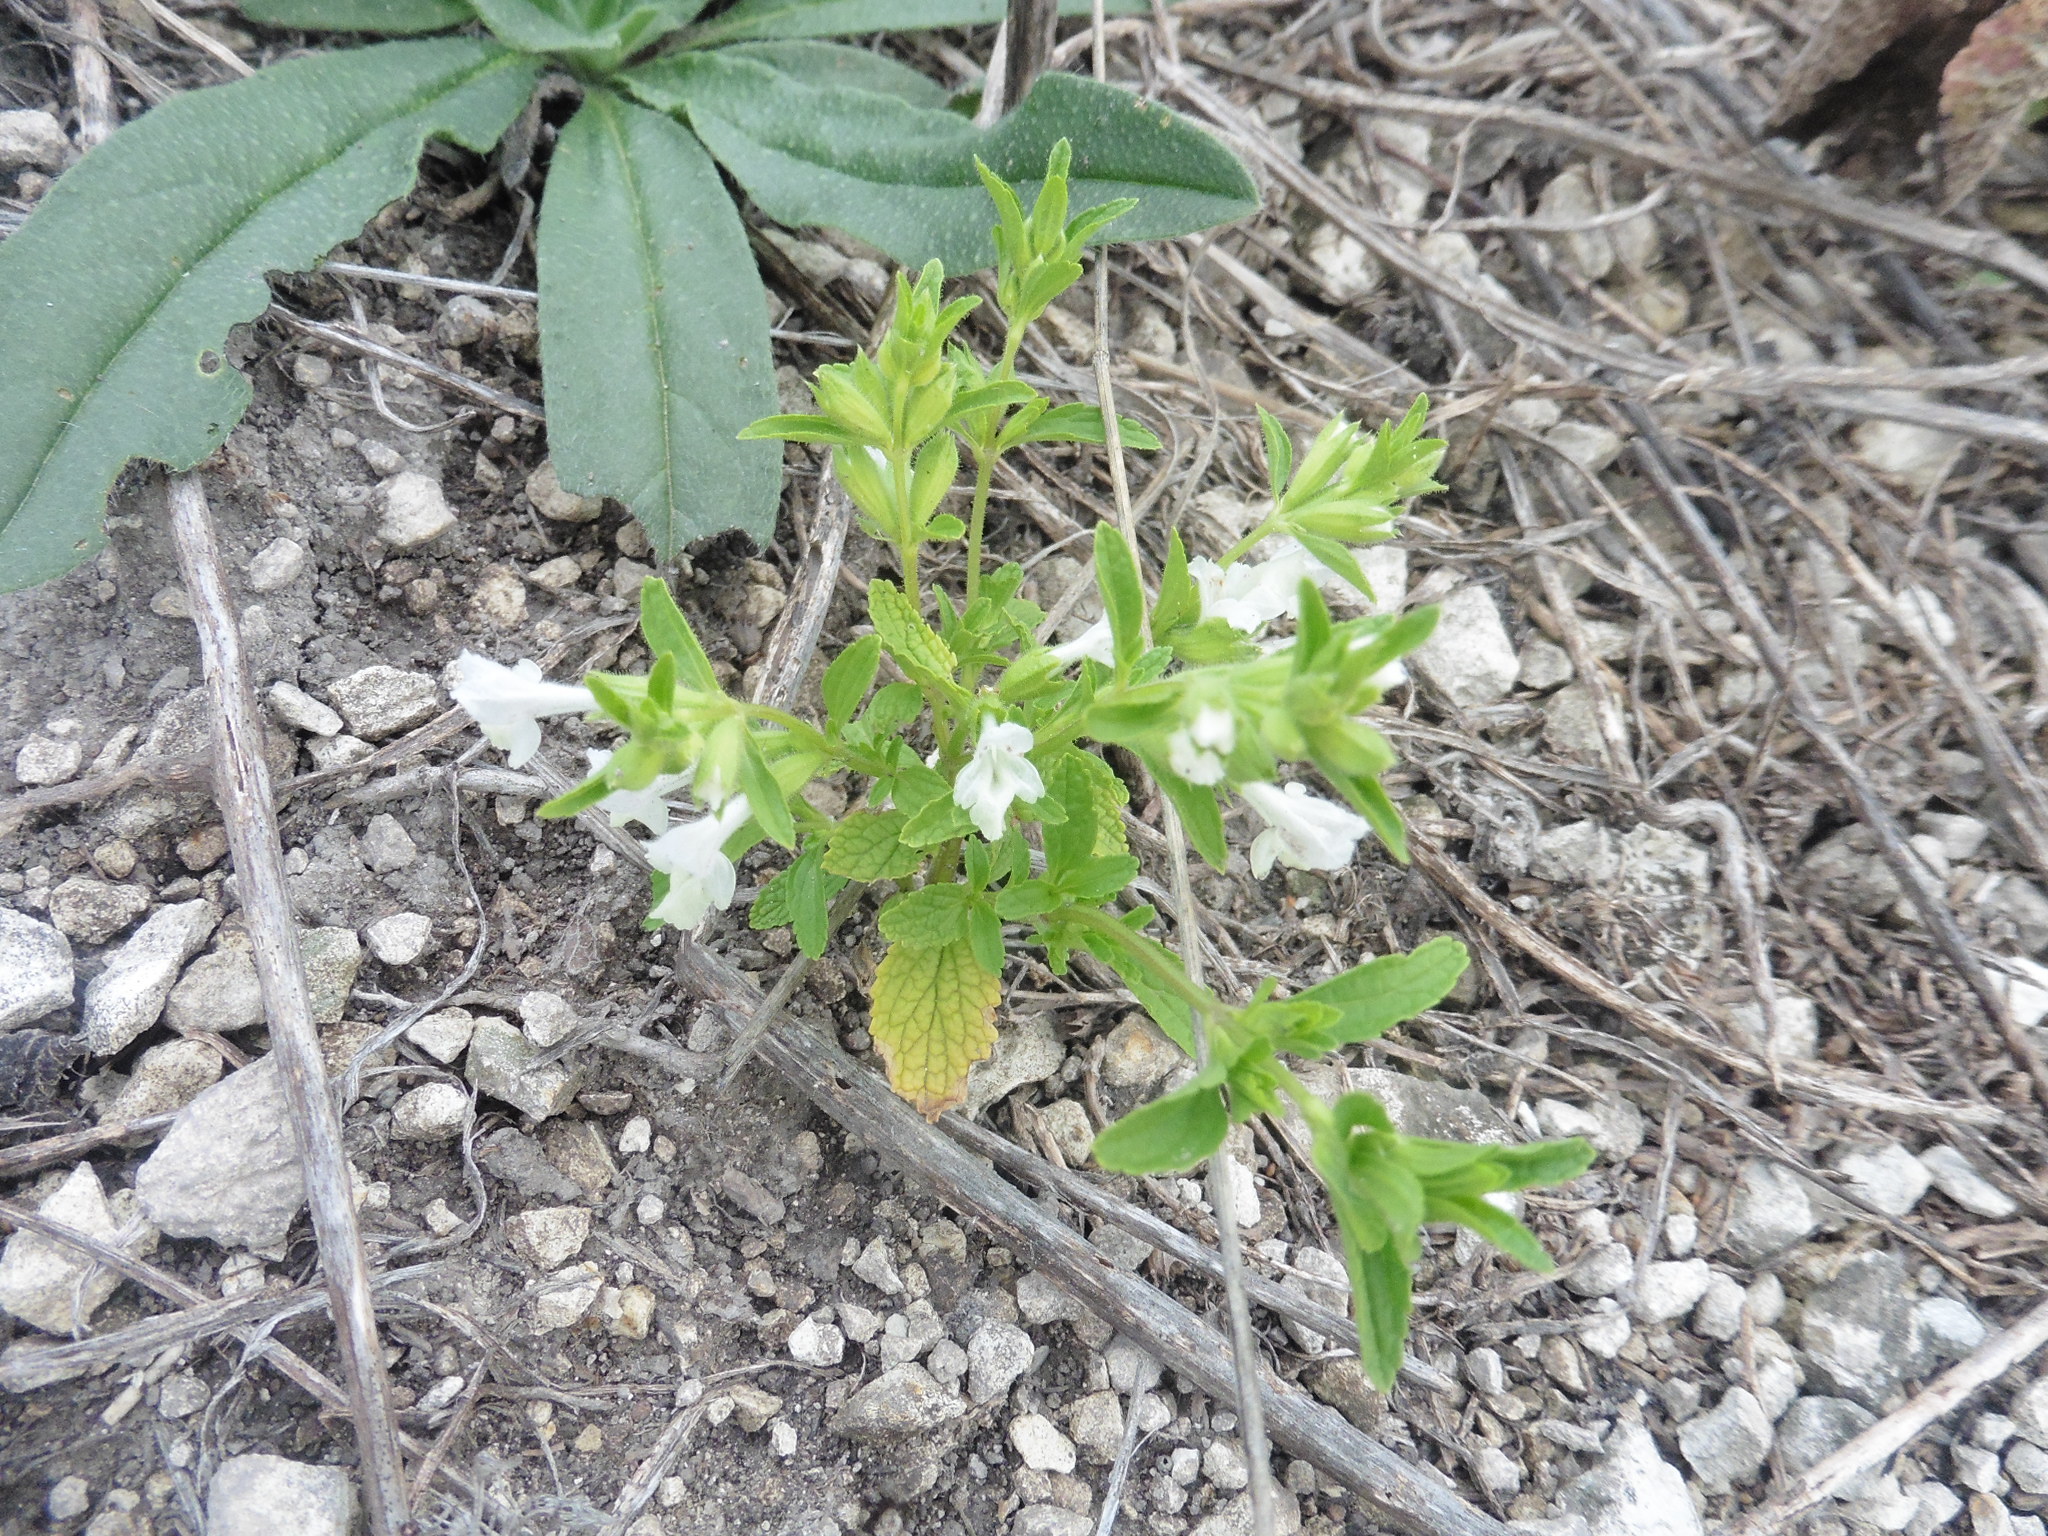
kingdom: Plantae
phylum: Tracheophyta
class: Magnoliopsida
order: Lamiales
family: Lamiaceae
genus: Stachys
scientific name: Stachys annua
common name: Annual yellow-woundwort
